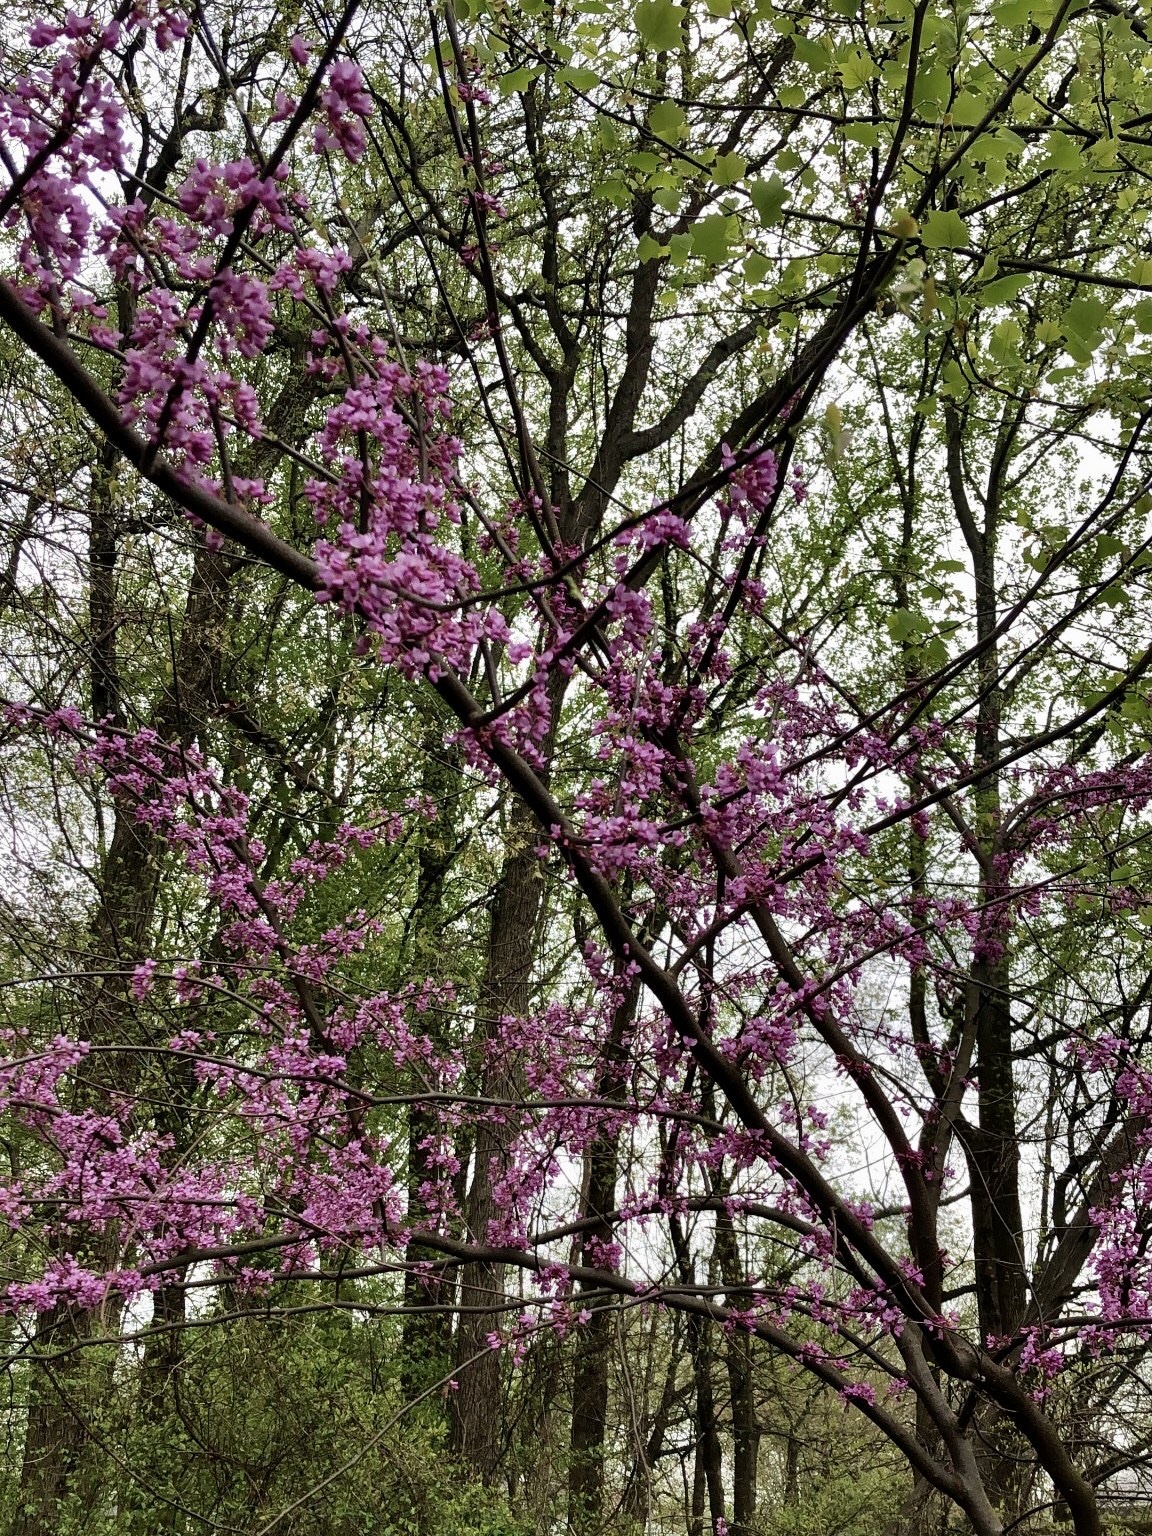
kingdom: Plantae
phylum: Tracheophyta
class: Magnoliopsida
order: Fabales
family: Fabaceae
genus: Cercis
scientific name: Cercis canadensis
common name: Eastern redbud
